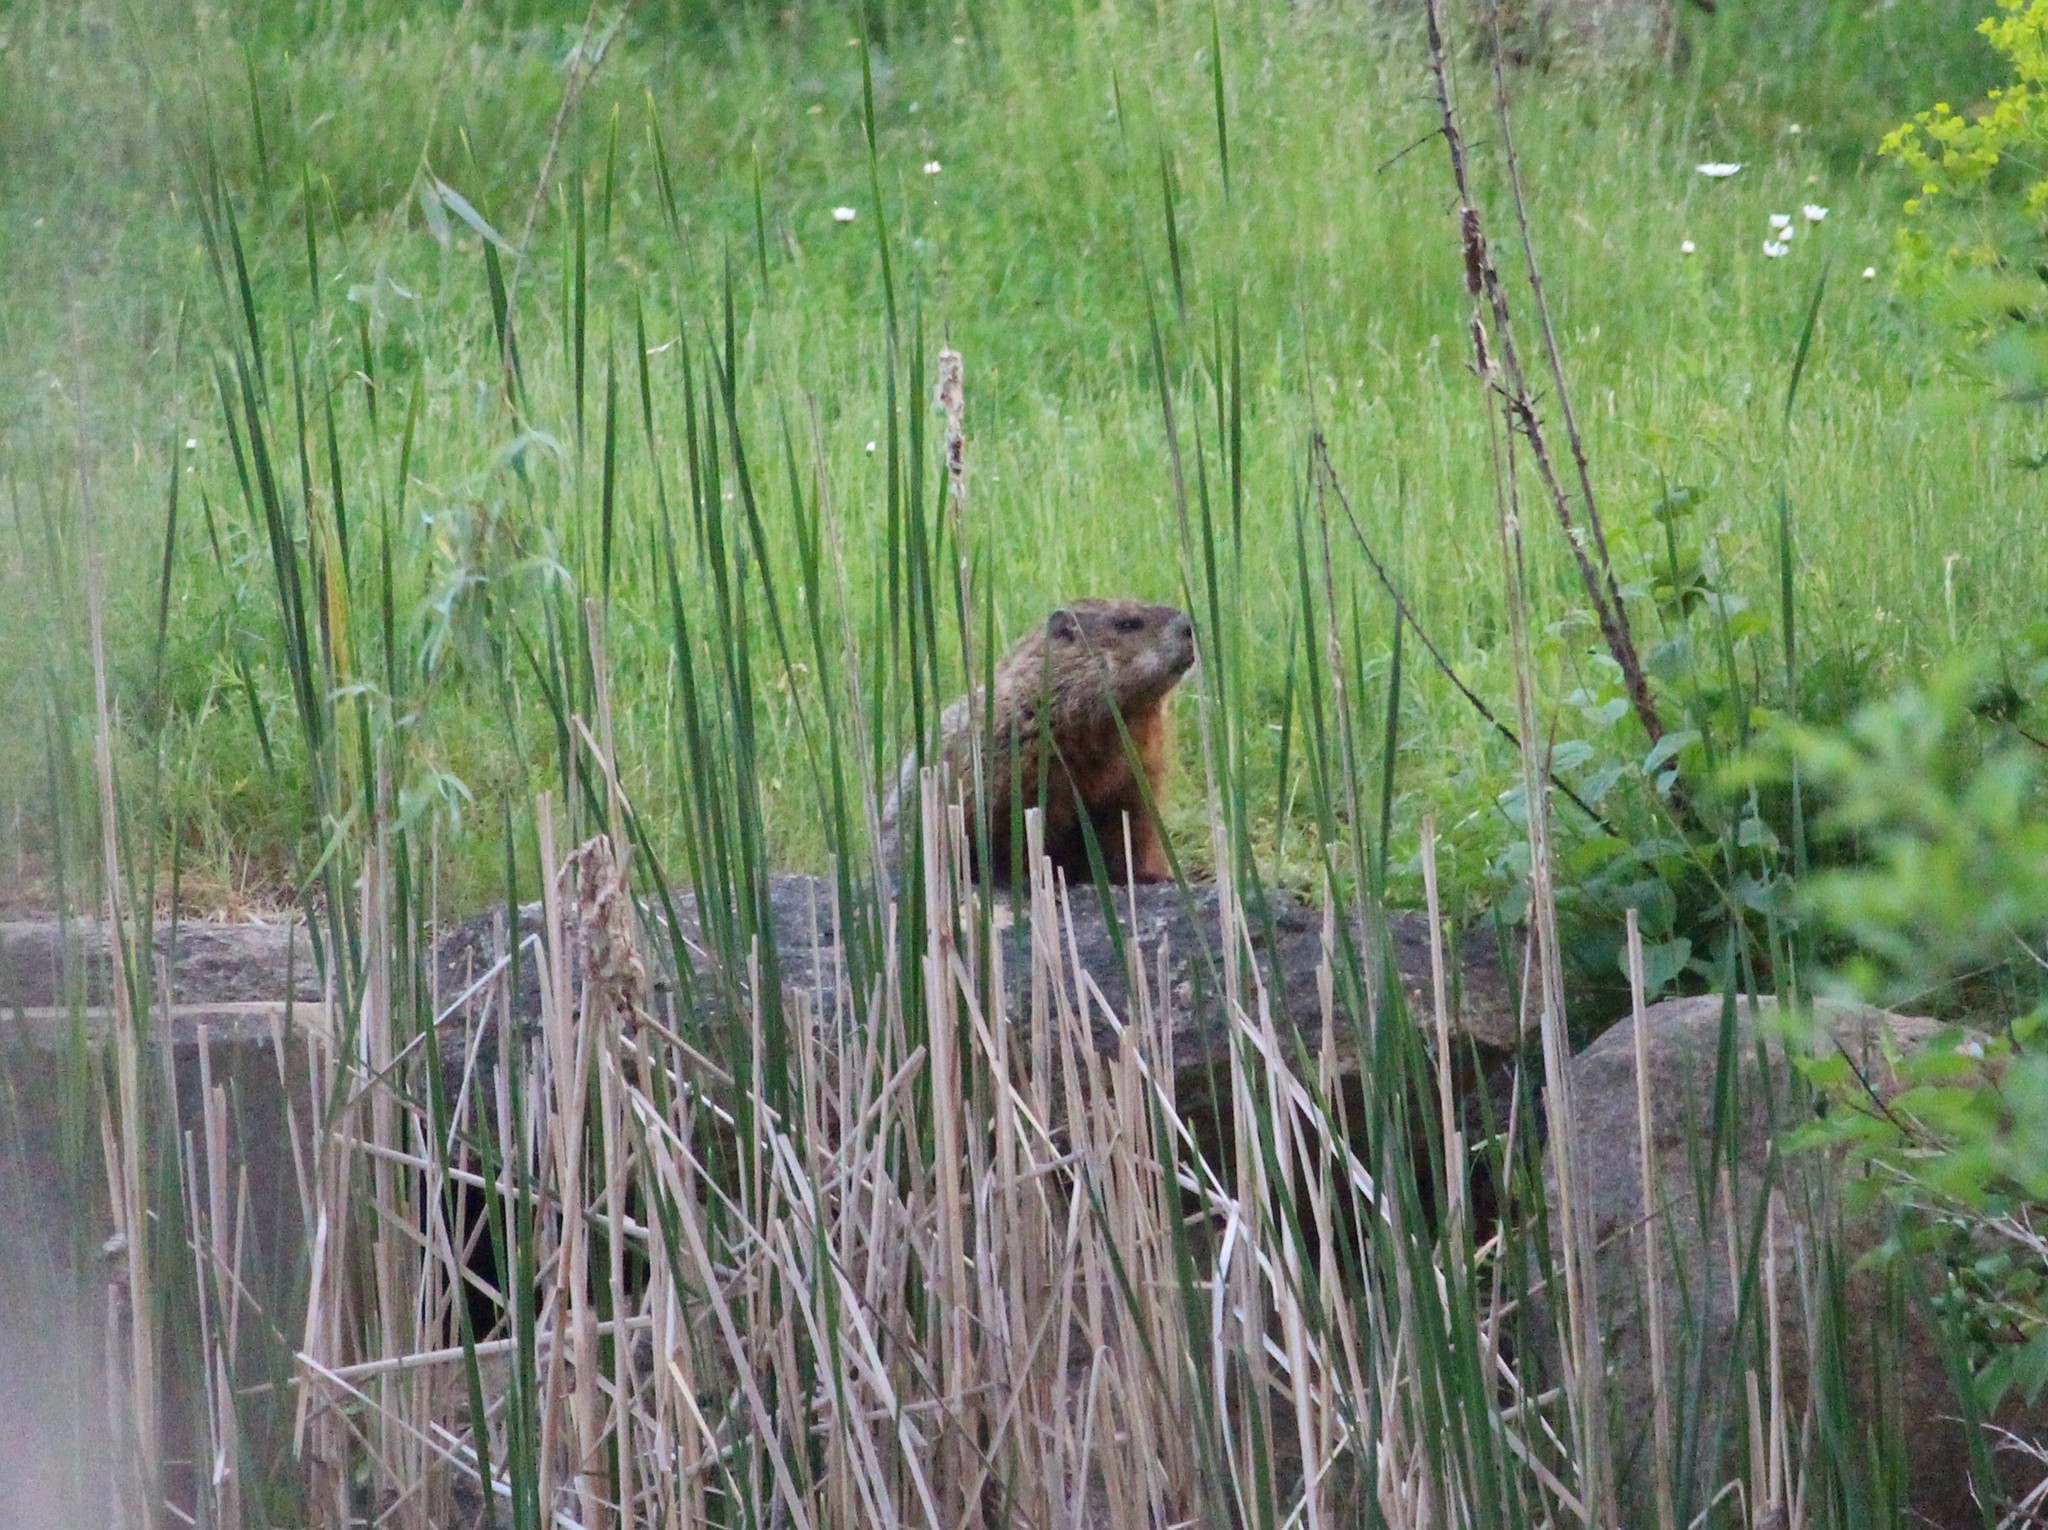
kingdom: Animalia
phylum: Chordata
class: Mammalia
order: Rodentia
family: Sciuridae
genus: Marmota
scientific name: Marmota monax
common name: Groundhog
